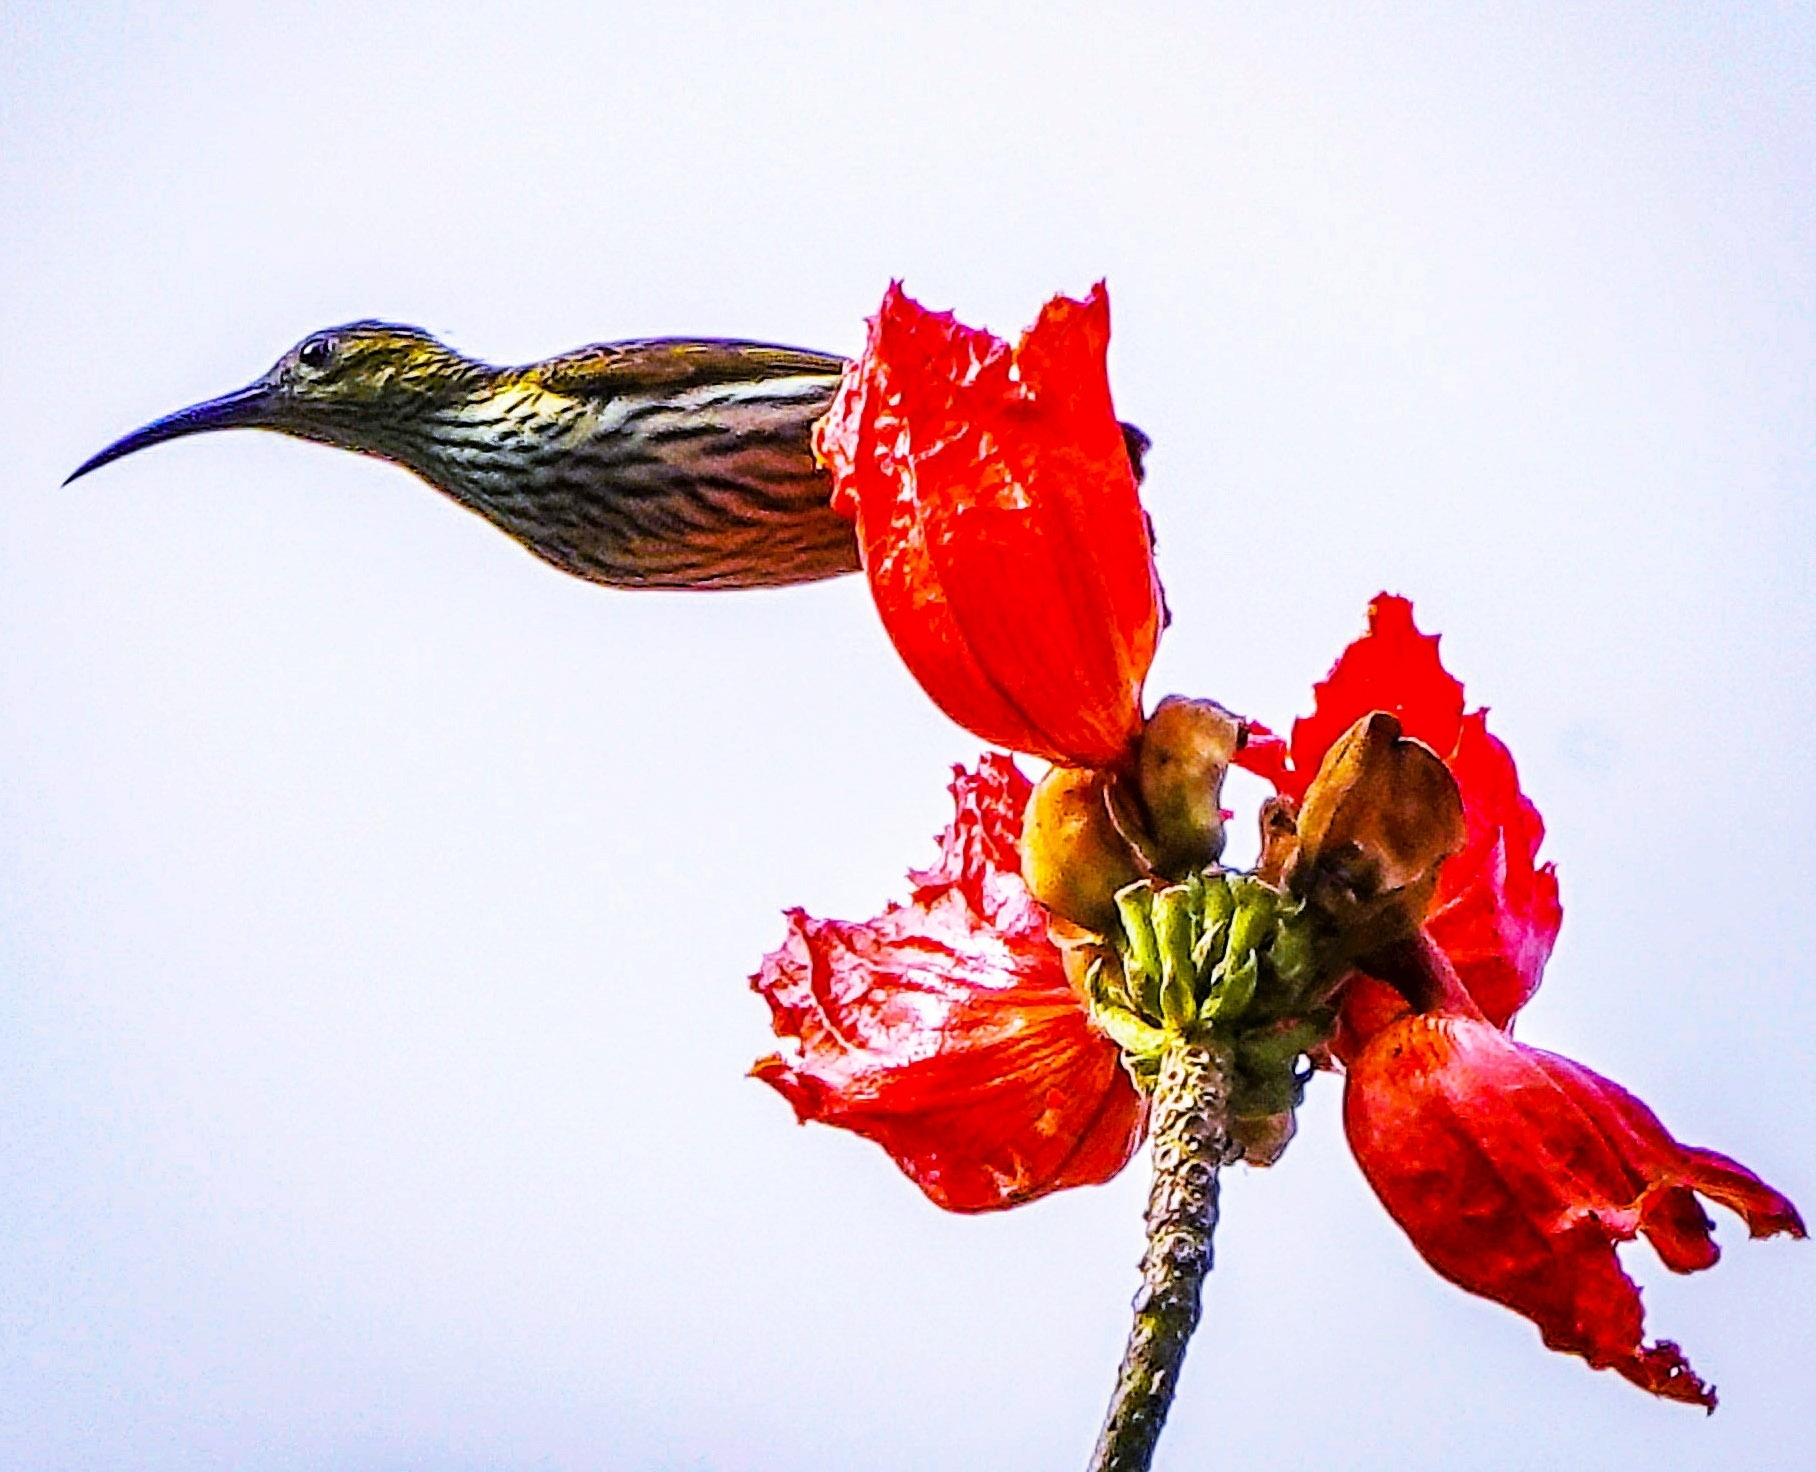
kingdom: Animalia
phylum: Chordata
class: Aves
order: Passeriformes
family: Nectariniidae
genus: Arachnothera
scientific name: Arachnothera magna
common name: Streaked spiderhunter
